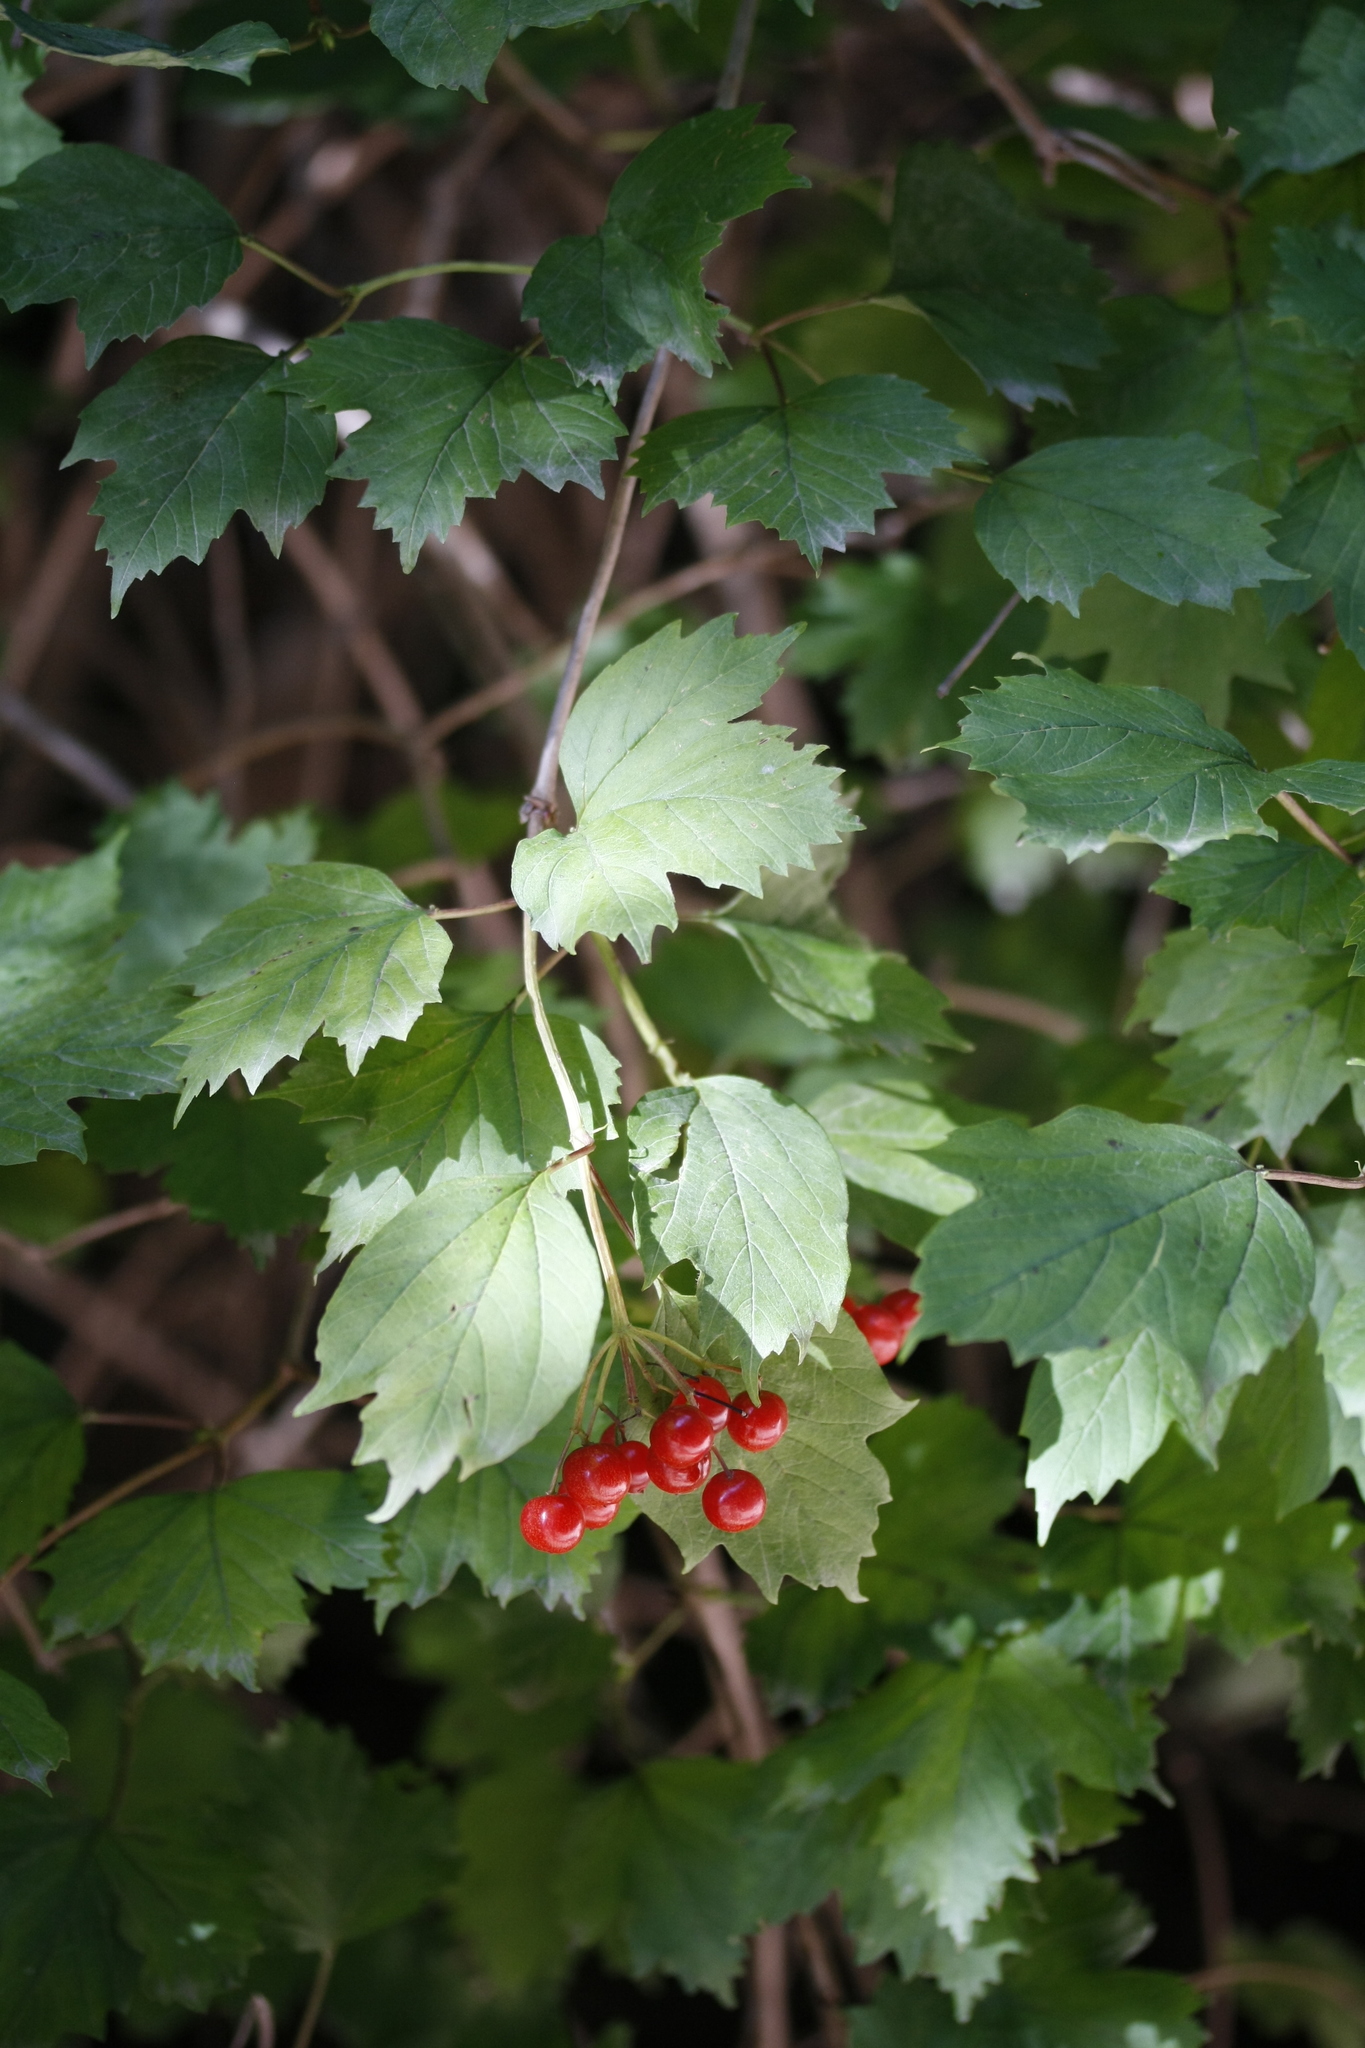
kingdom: Plantae
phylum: Tracheophyta
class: Magnoliopsida
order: Dipsacales
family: Viburnaceae
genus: Viburnum
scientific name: Viburnum opulus
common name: Guelder-rose
